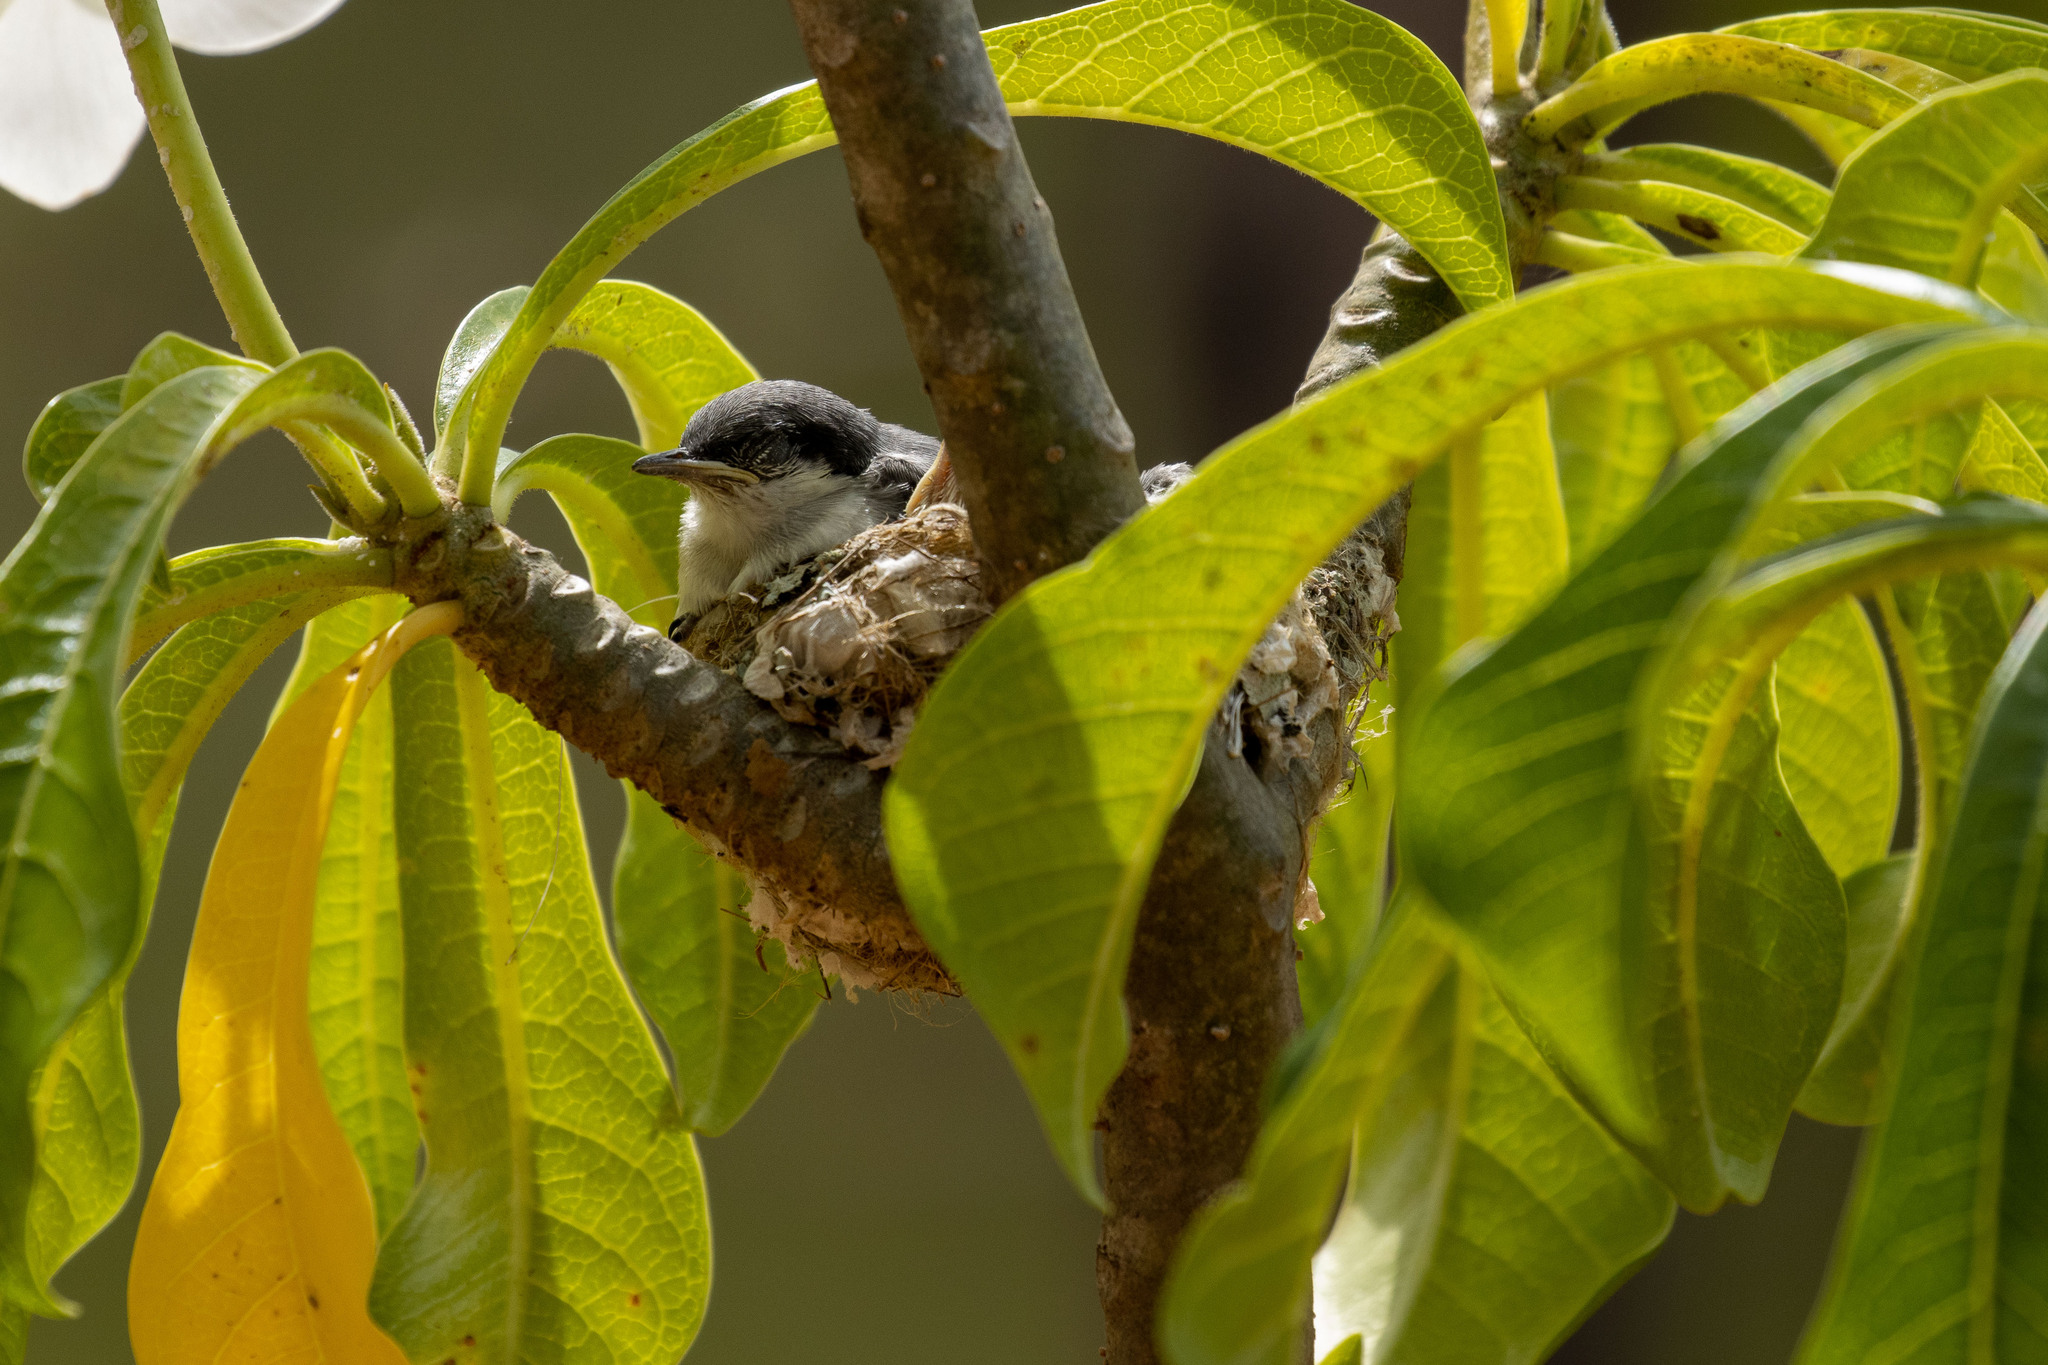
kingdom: Animalia
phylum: Chordata
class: Aves
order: Passeriformes
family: Polioptilidae
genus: Polioptila
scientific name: Polioptila plumbea
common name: Tropical gnatcatcher
